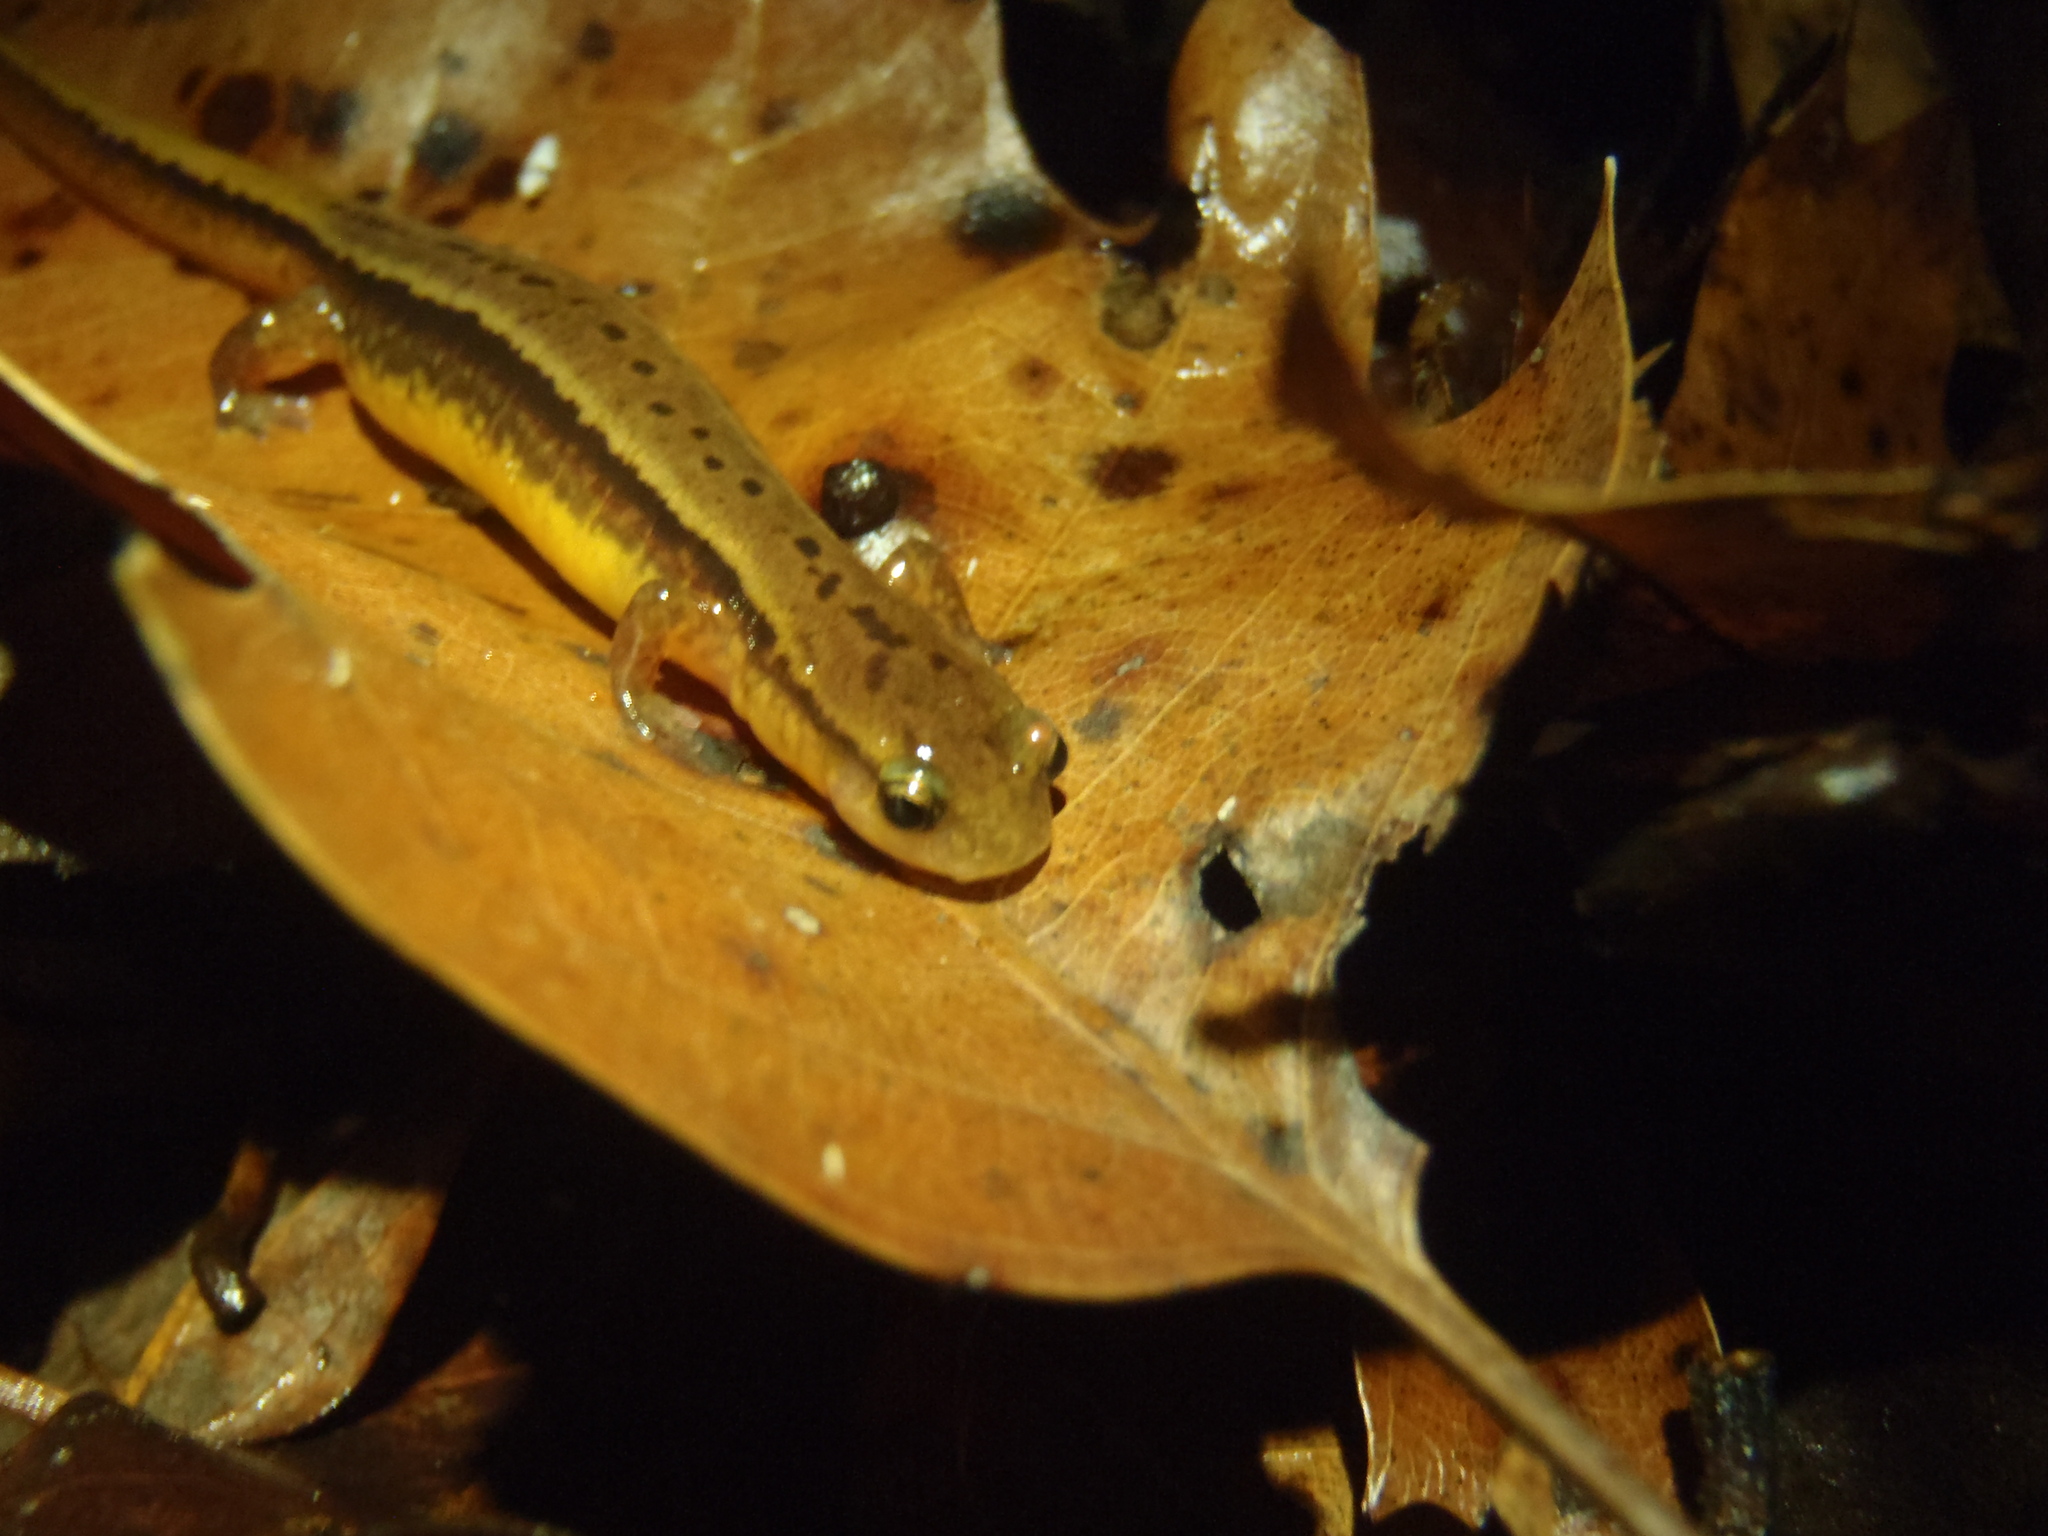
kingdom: Animalia
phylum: Chordata
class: Amphibia
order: Caudata
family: Plethodontidae
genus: Eurycea
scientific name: Eurycea cirrigera
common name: Southern two-lined salamander
